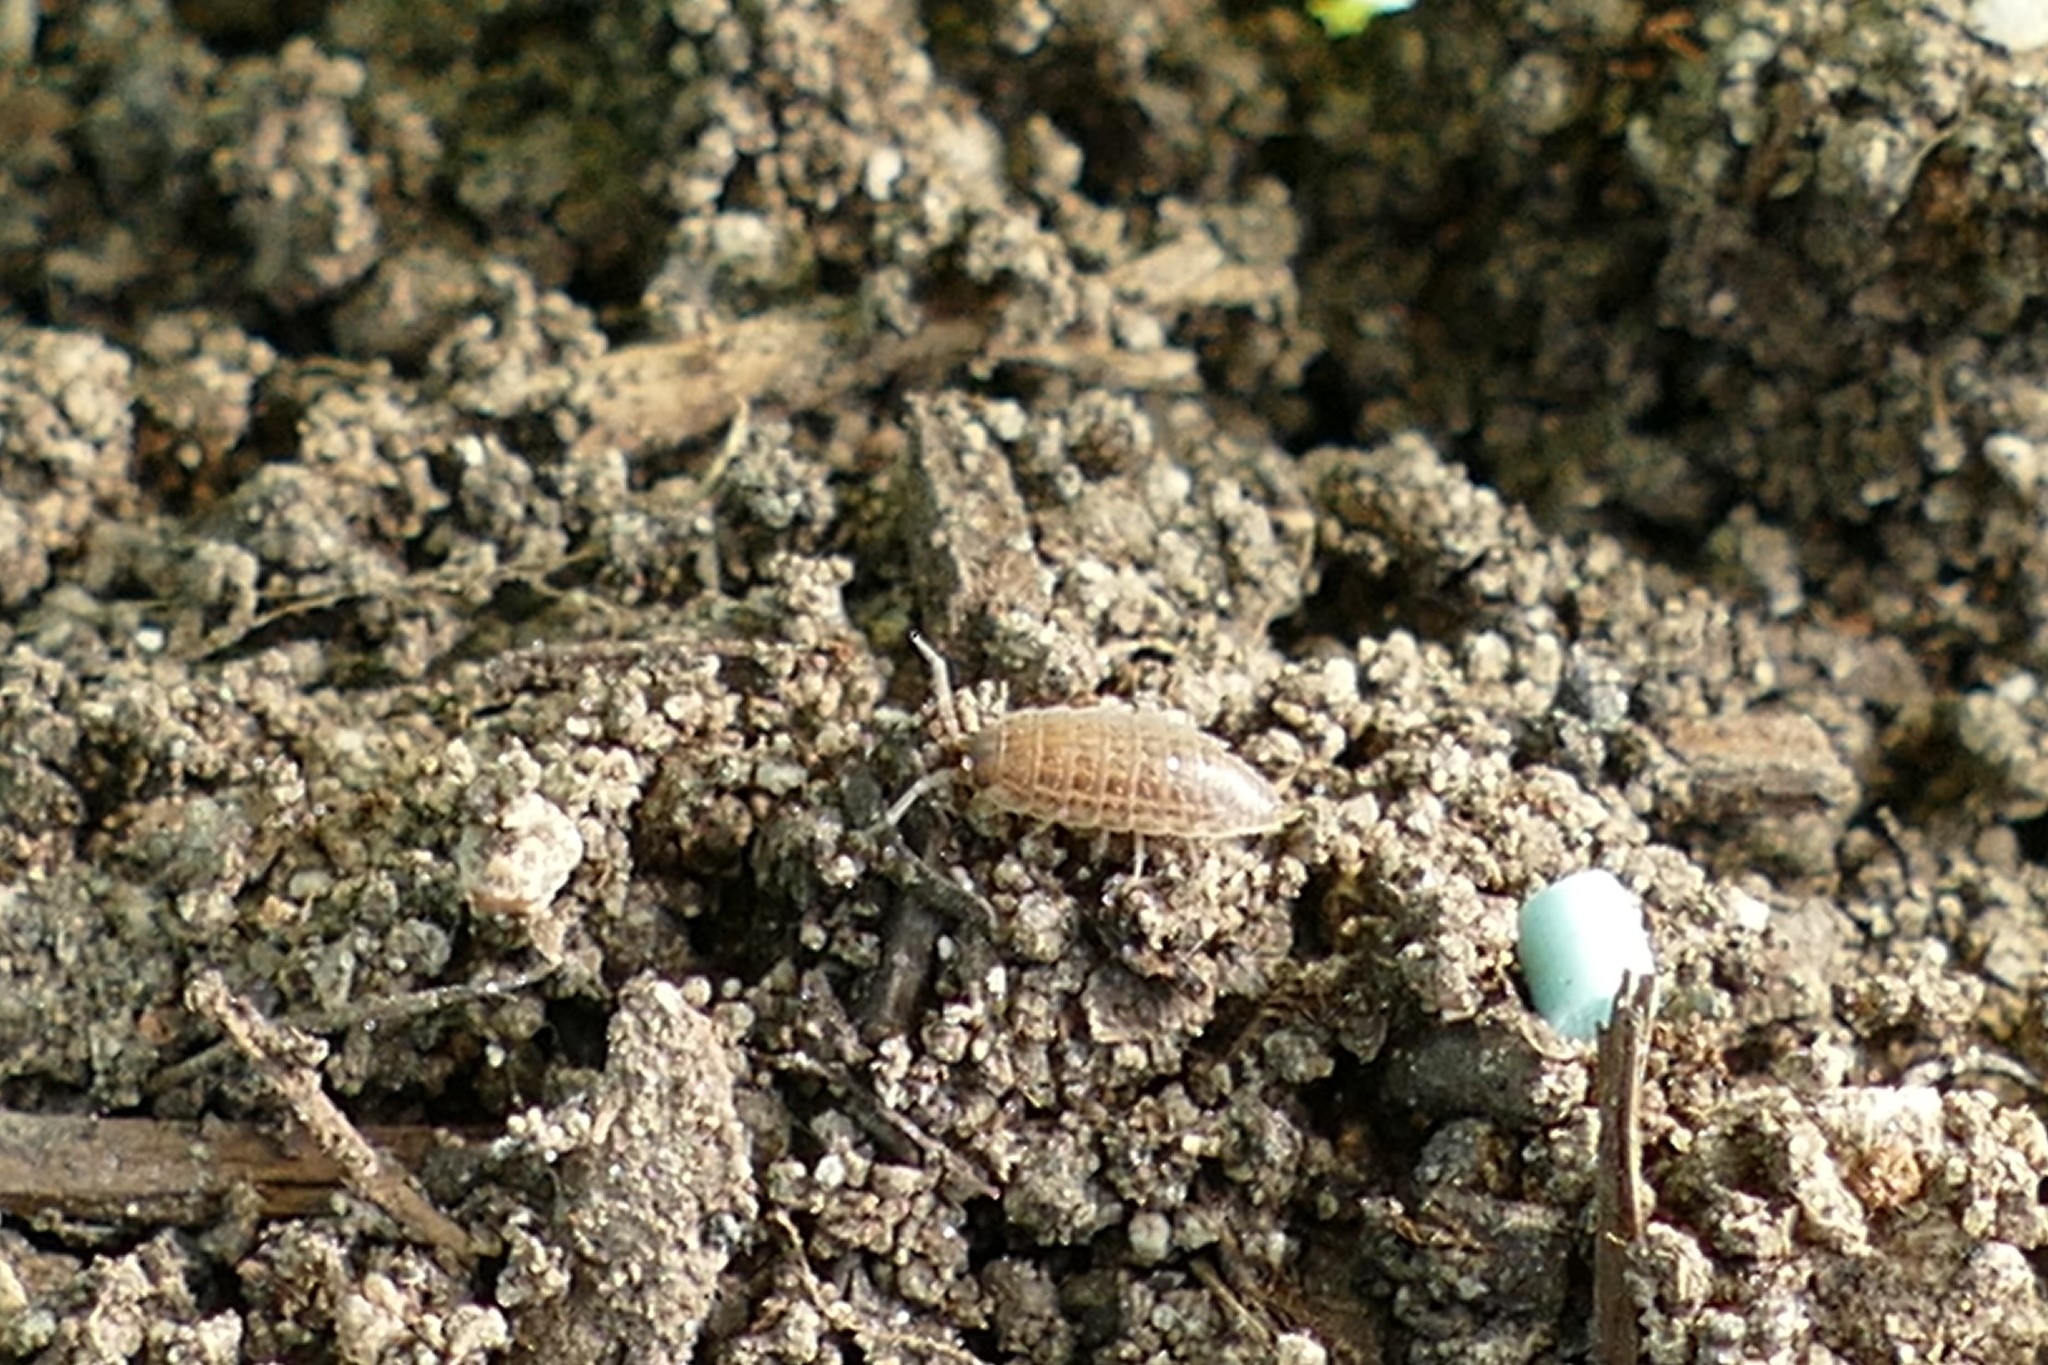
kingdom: Animalia
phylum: Arthropoda
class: Malacostraca
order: Isopoda
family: Porcellionidae
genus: Porcellio
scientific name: Porcellio laevis
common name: Swift woodlouse
